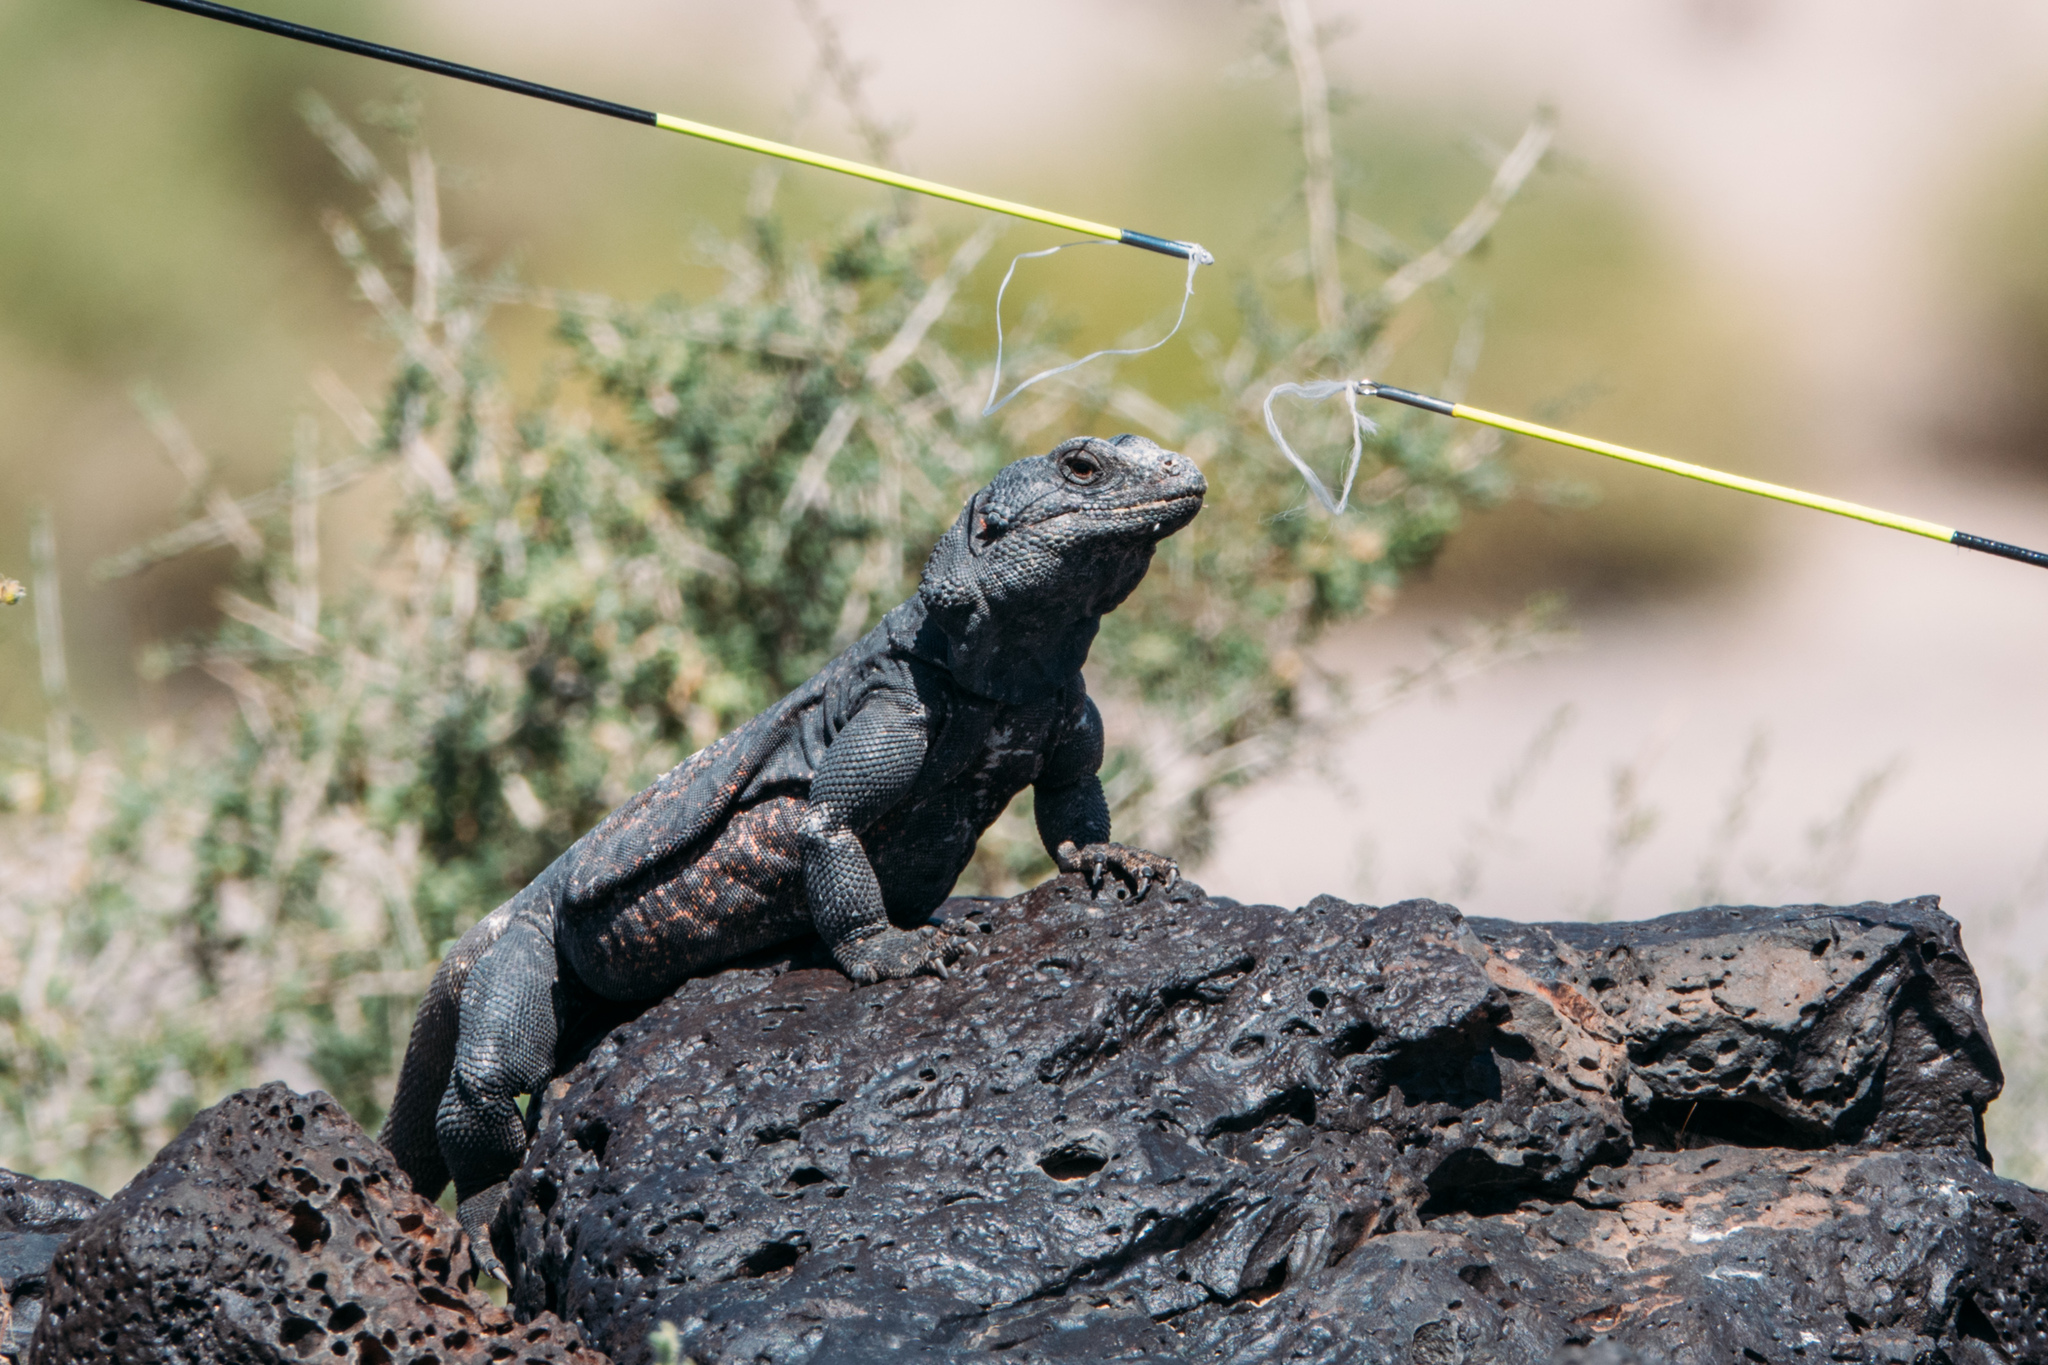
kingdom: Animalia
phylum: Chordata
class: Squamata
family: Iguanidae
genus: Sauromalus
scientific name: Sauromalus ater
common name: Northern chuckwalla
